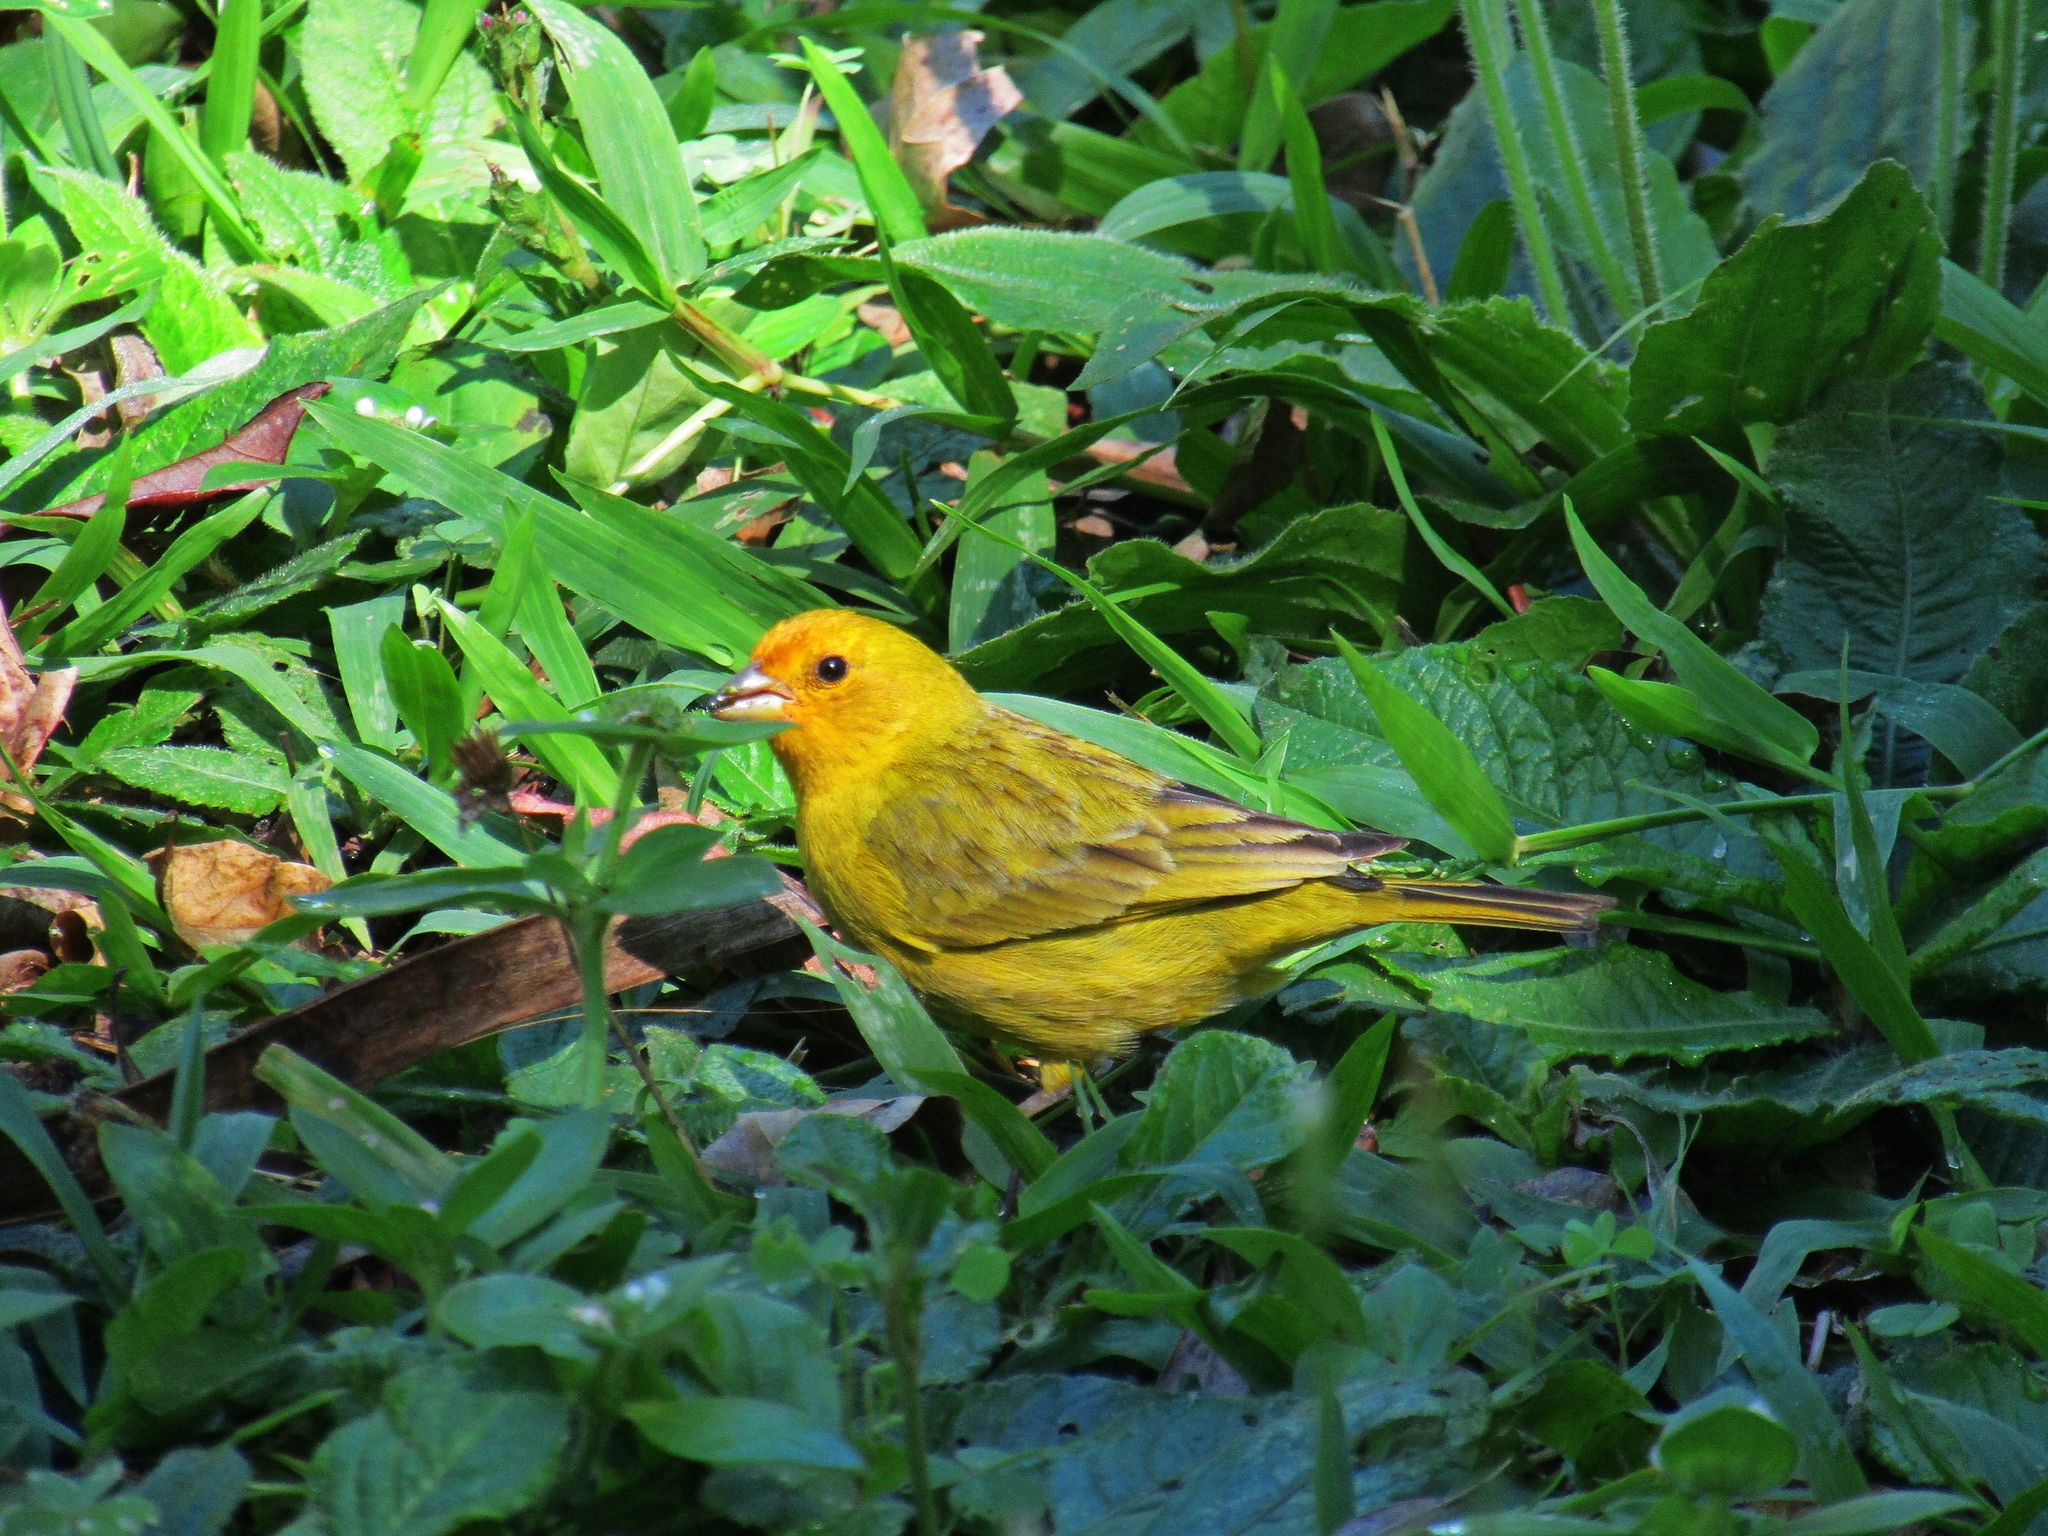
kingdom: Animalia
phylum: Chordata
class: Aves
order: Passeriformes
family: Thraupidae
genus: Sicalis
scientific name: Sicalis flaveola
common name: Saffron finch
